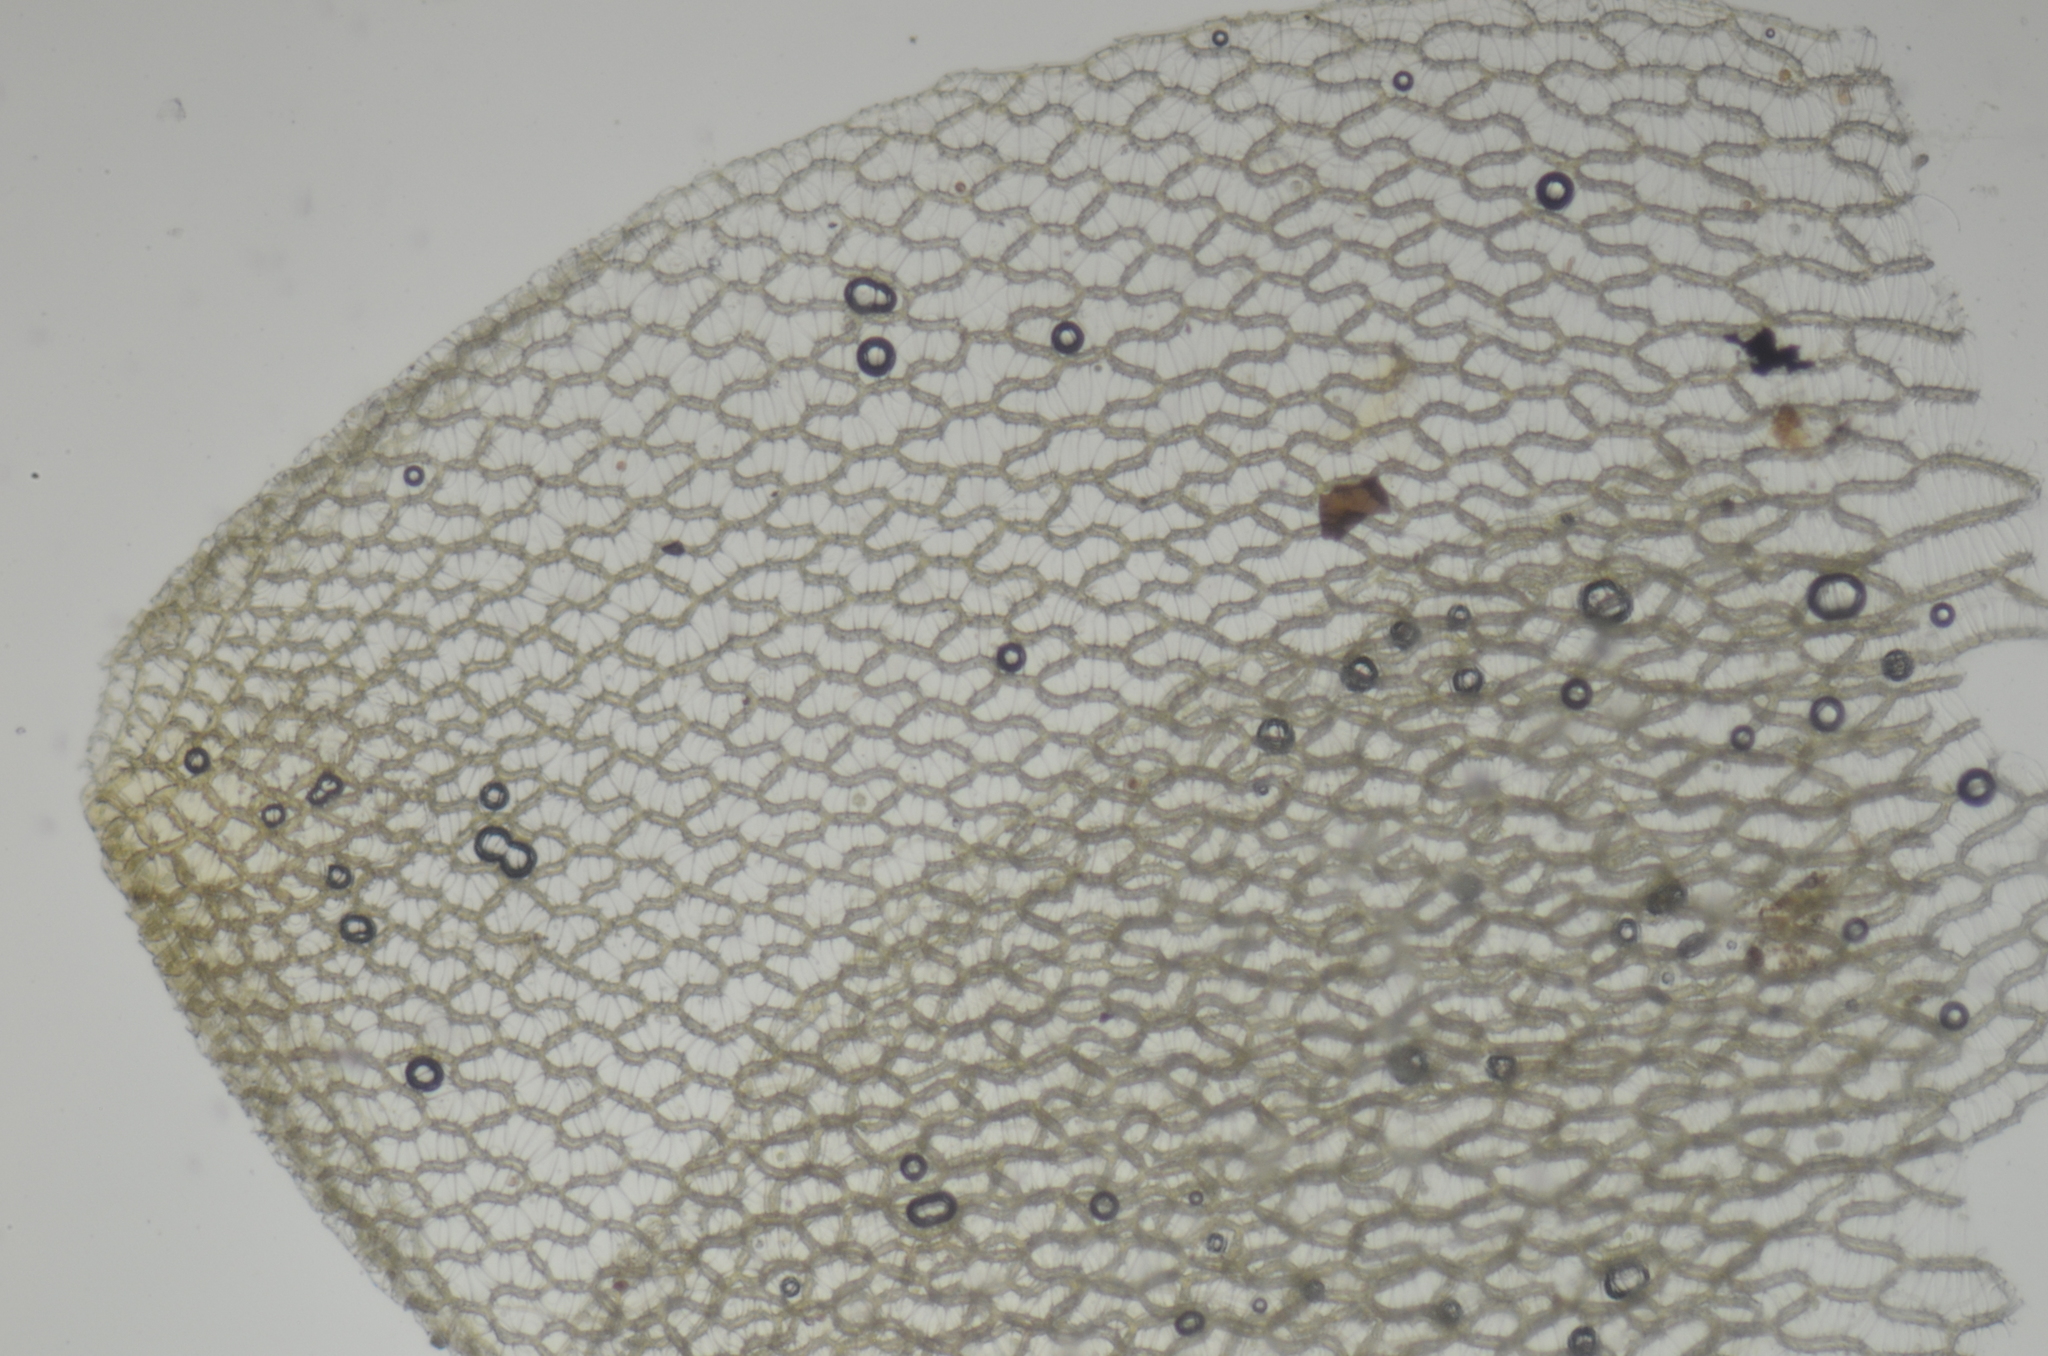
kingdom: Plantae
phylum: Bryophyta
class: Sphagnopsida
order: Sphagnales
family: Sphagnaceae
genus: Sphagnum
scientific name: Sphagnum papillosum
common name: Papillose peat moss
